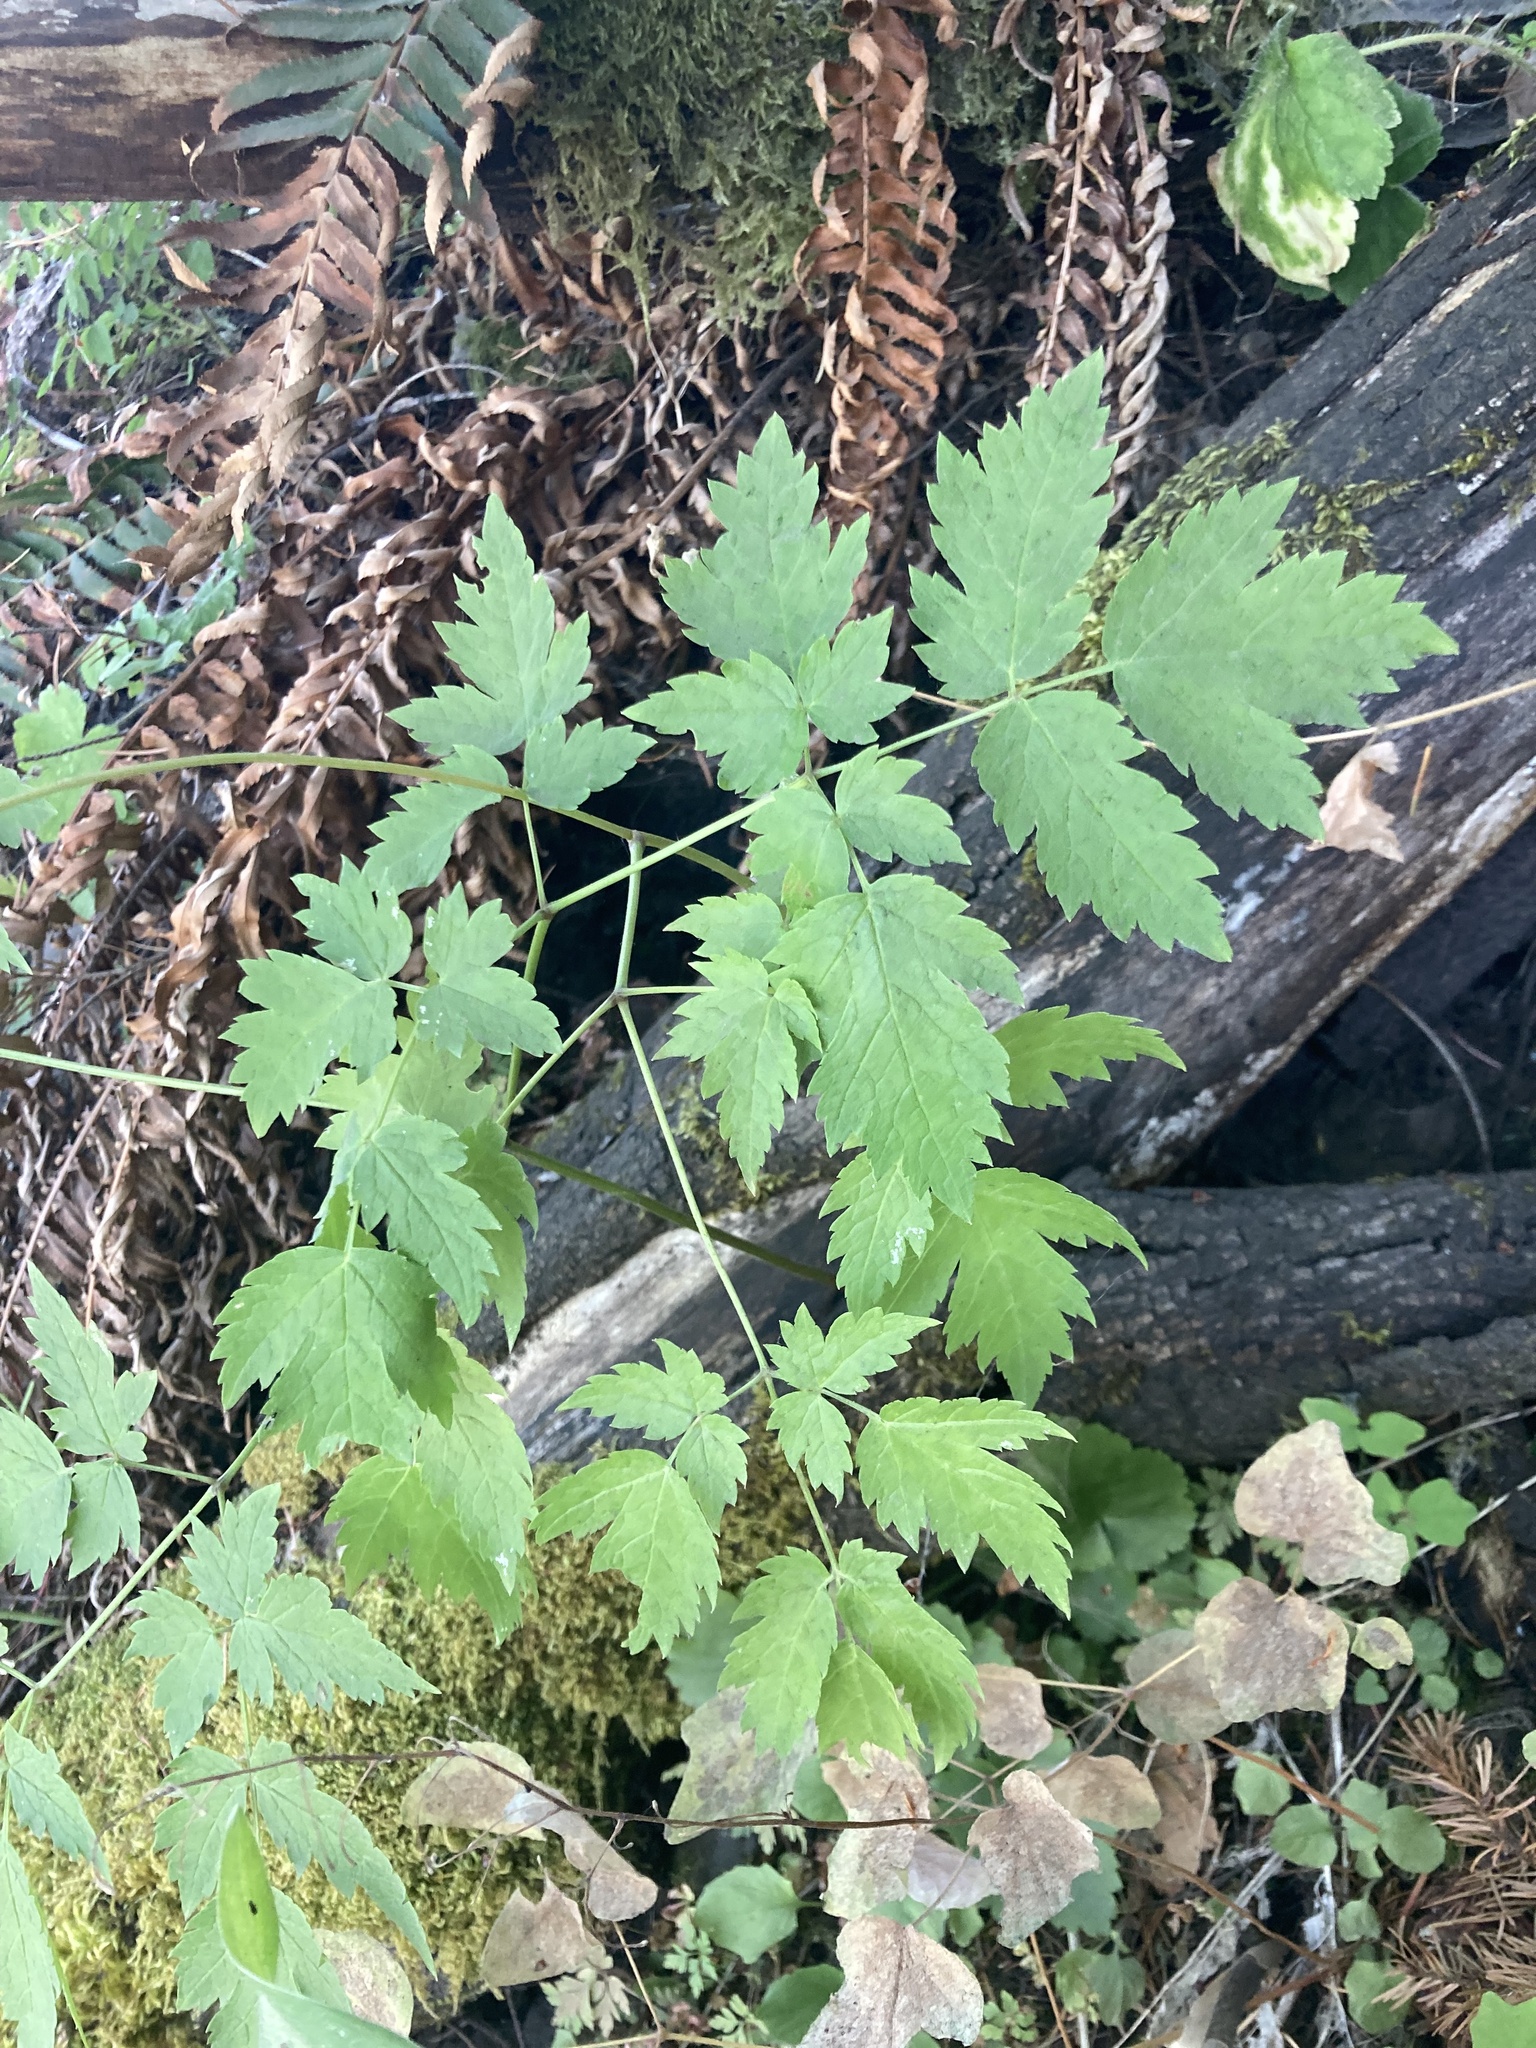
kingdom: Plantae
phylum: Tracheophyta
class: Magnoliopsida
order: Ranunculales
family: Ranunculaceae
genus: Actaea
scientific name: Actaea rubra
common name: Red baneberry
